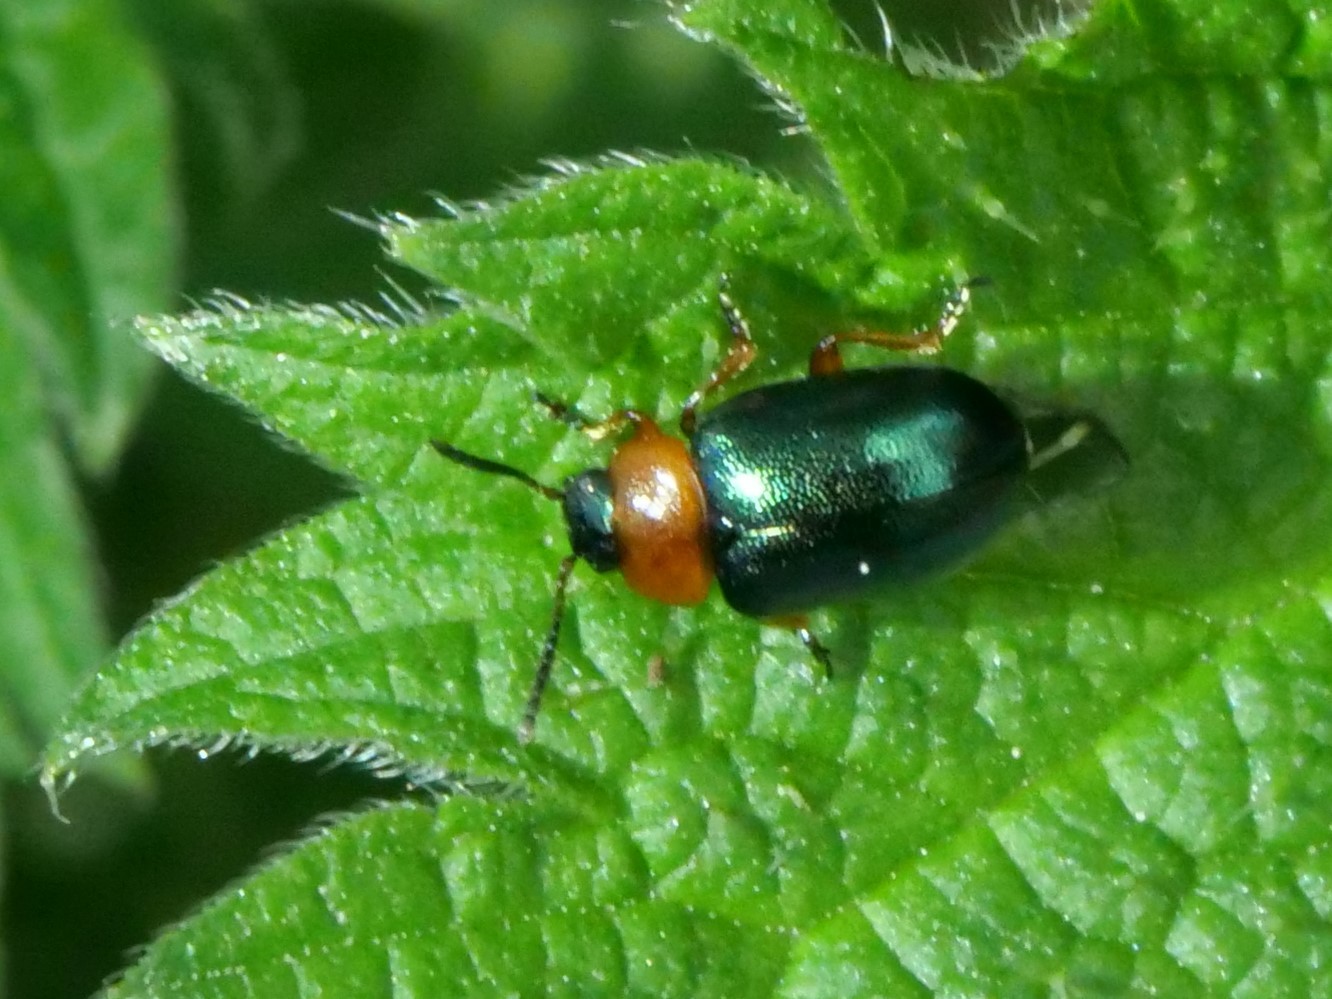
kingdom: Animalia
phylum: Arthropoda
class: Insecta
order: Coleoptera
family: Chrysomelidae
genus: Gastrophysa
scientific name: Gastrophysa polygoni
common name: Knotweed leaf beetle
